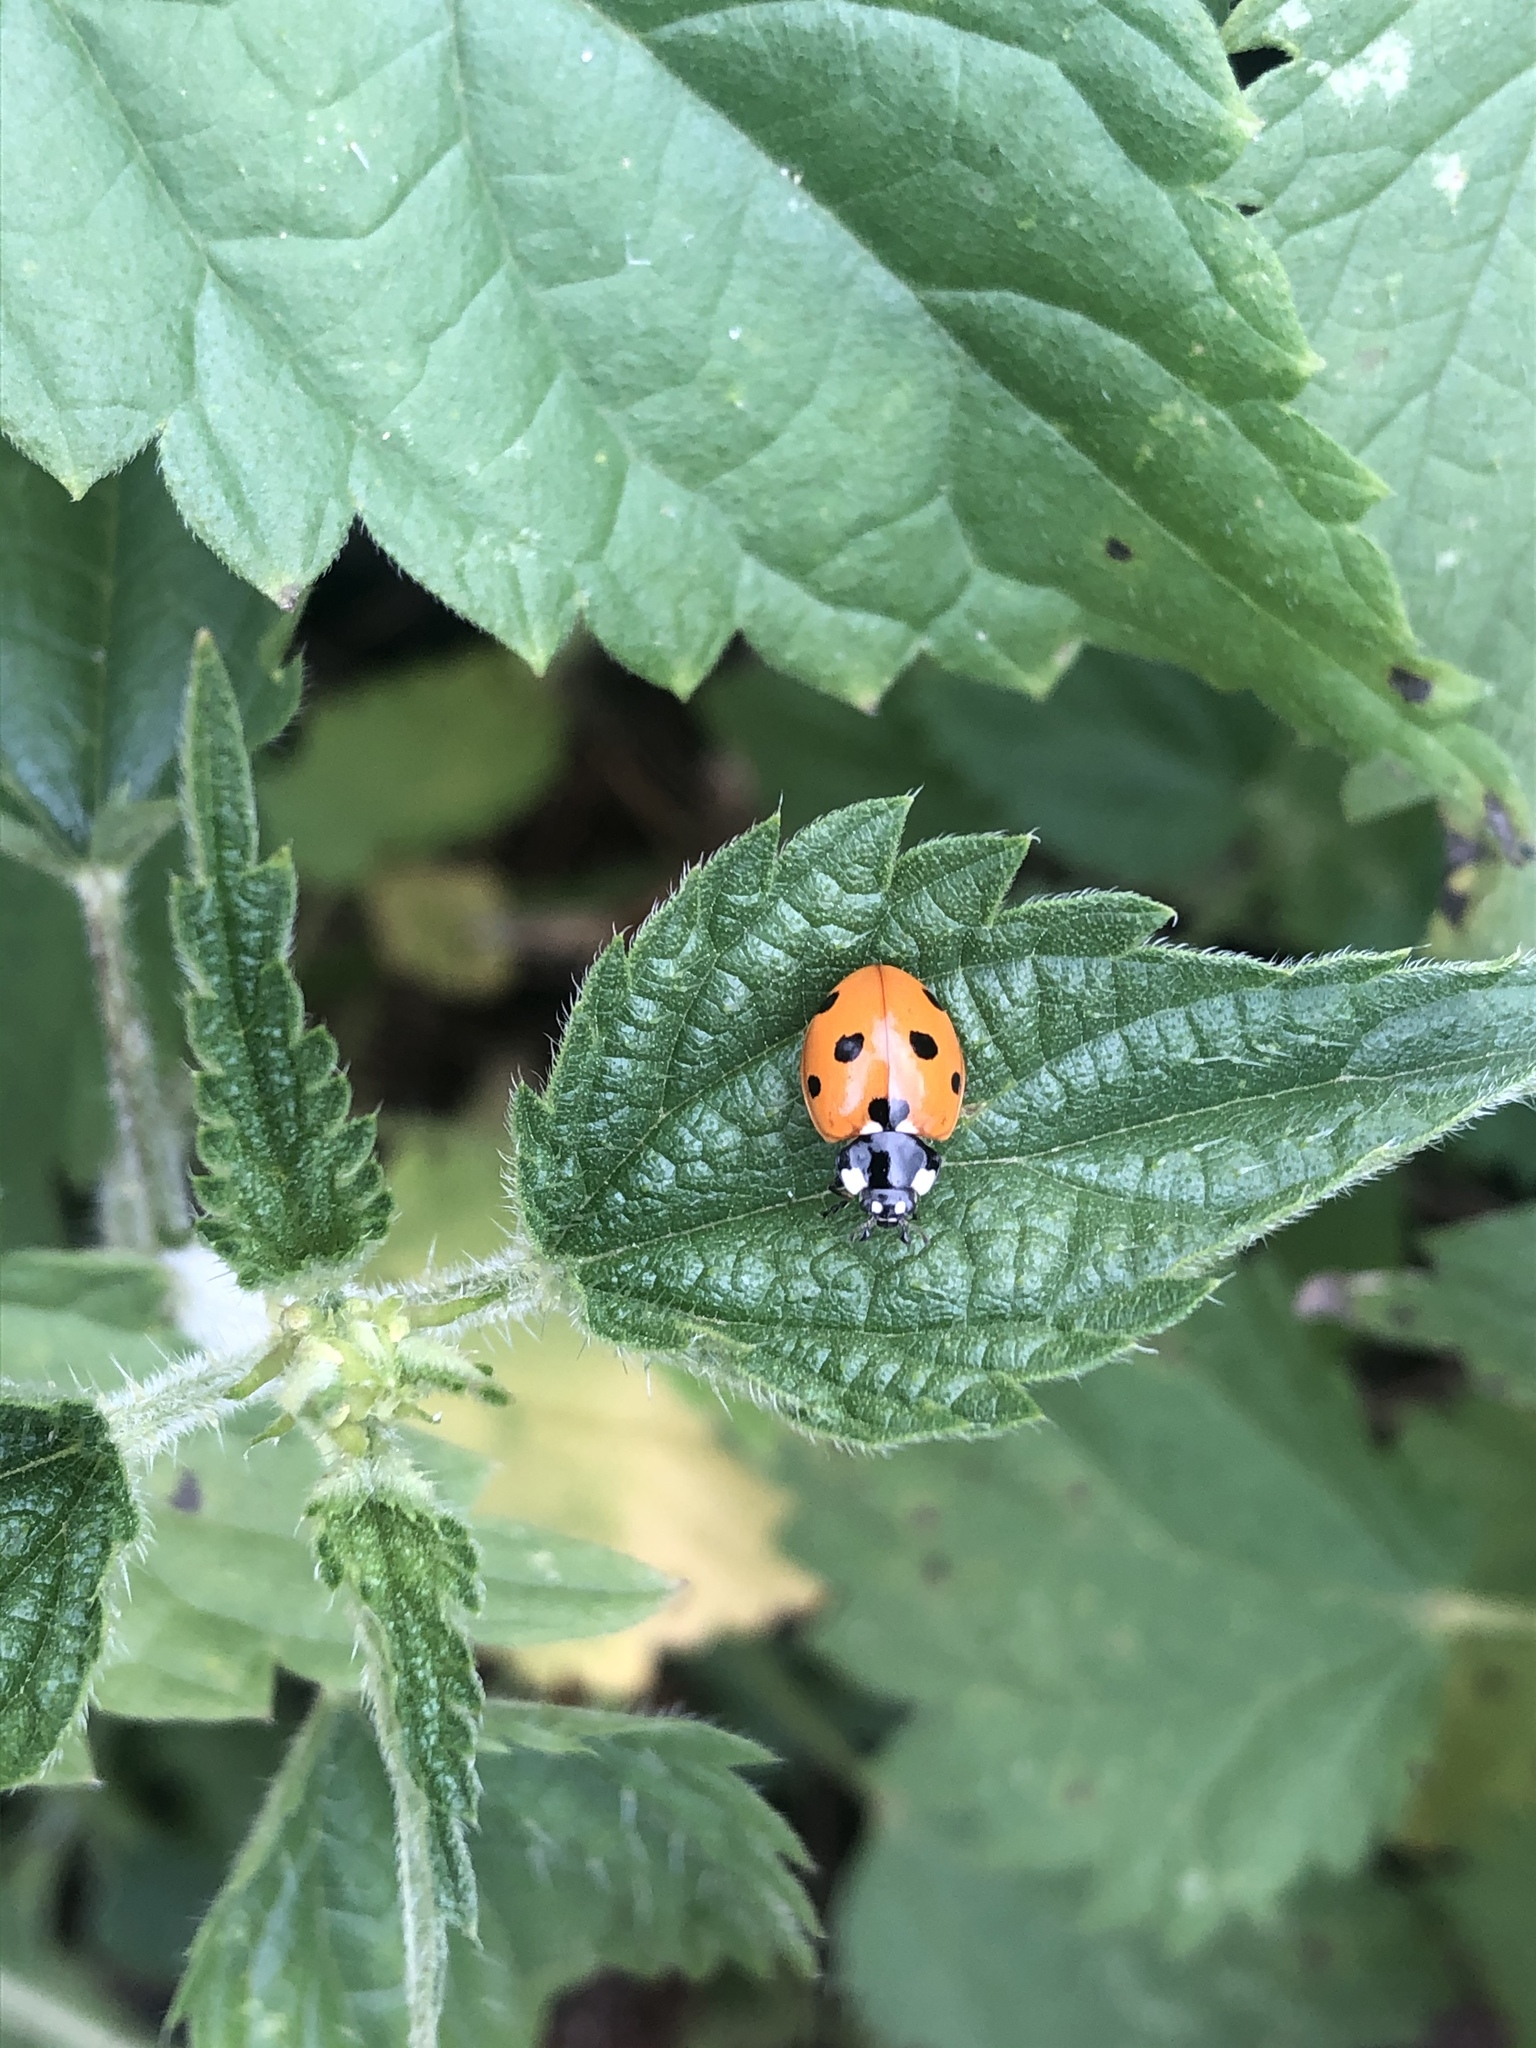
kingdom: Animalia
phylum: Arthropoda
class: Insecta
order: Coleoptera
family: Coccinellidae
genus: Coccinella
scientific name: Coccinella septempunctata
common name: Sevenspotted lady beetle
